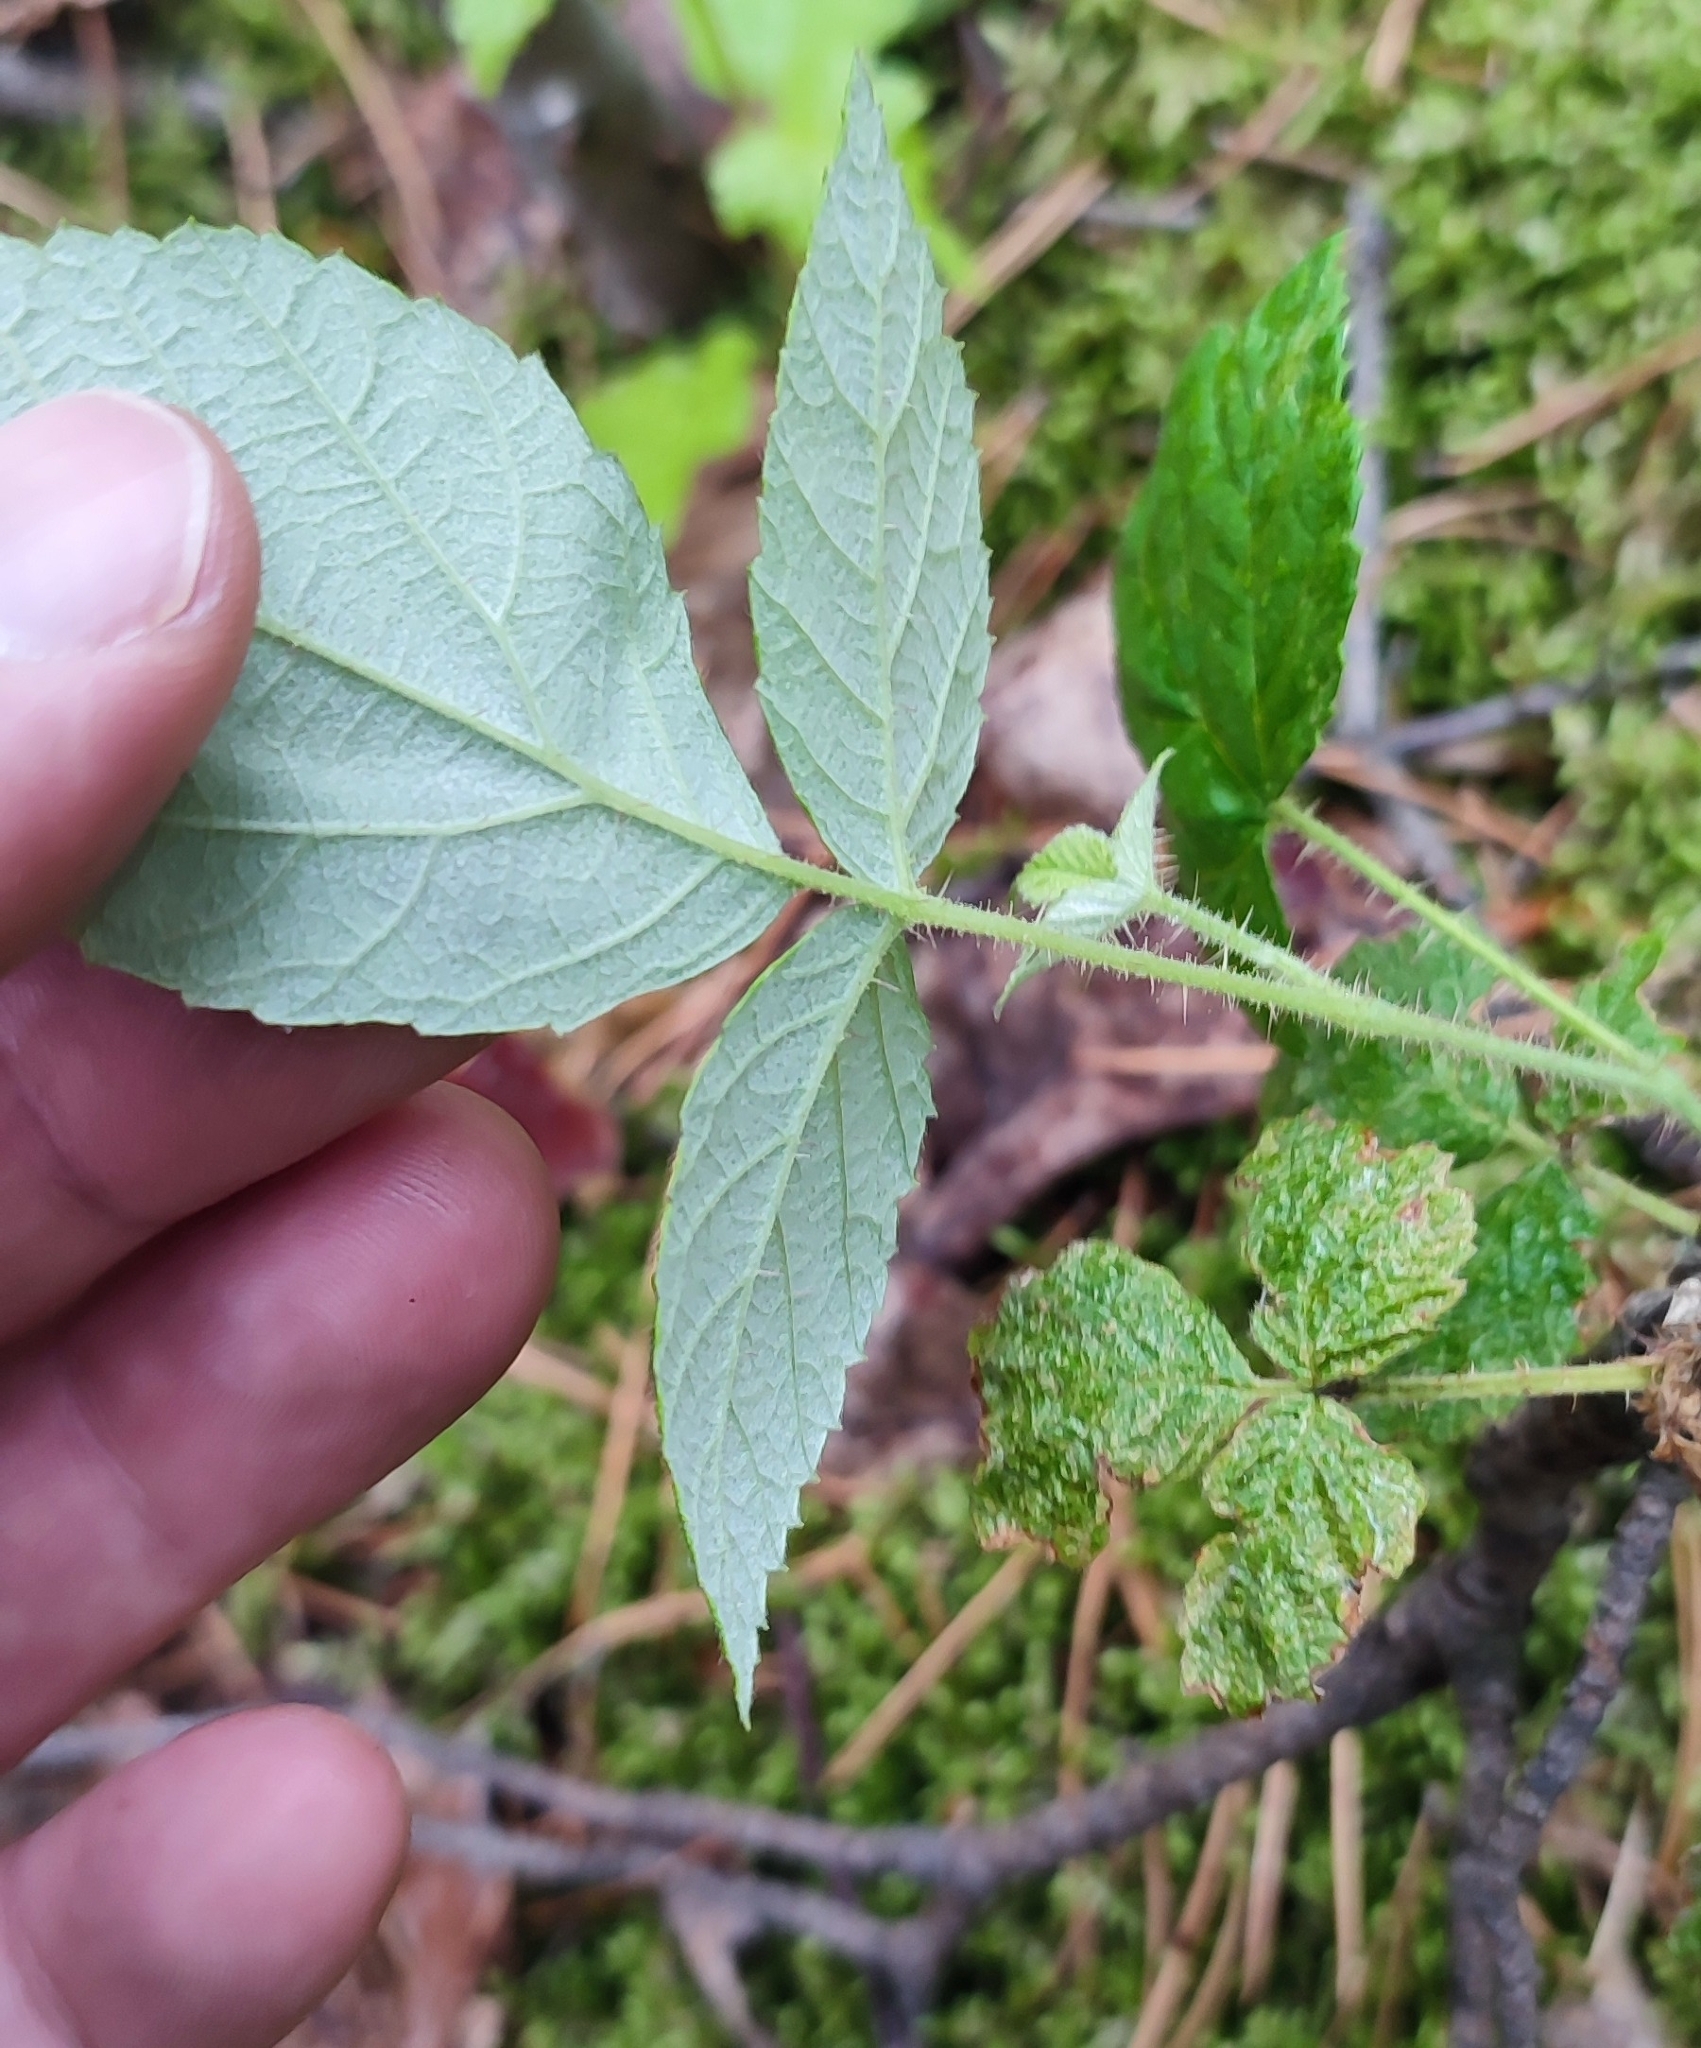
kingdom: Plantae
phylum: Tracheophyta
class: Magnoliopsida
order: Rosales
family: Rosaceae
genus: Rubus
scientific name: Rubus idaeus
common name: Raspberry
